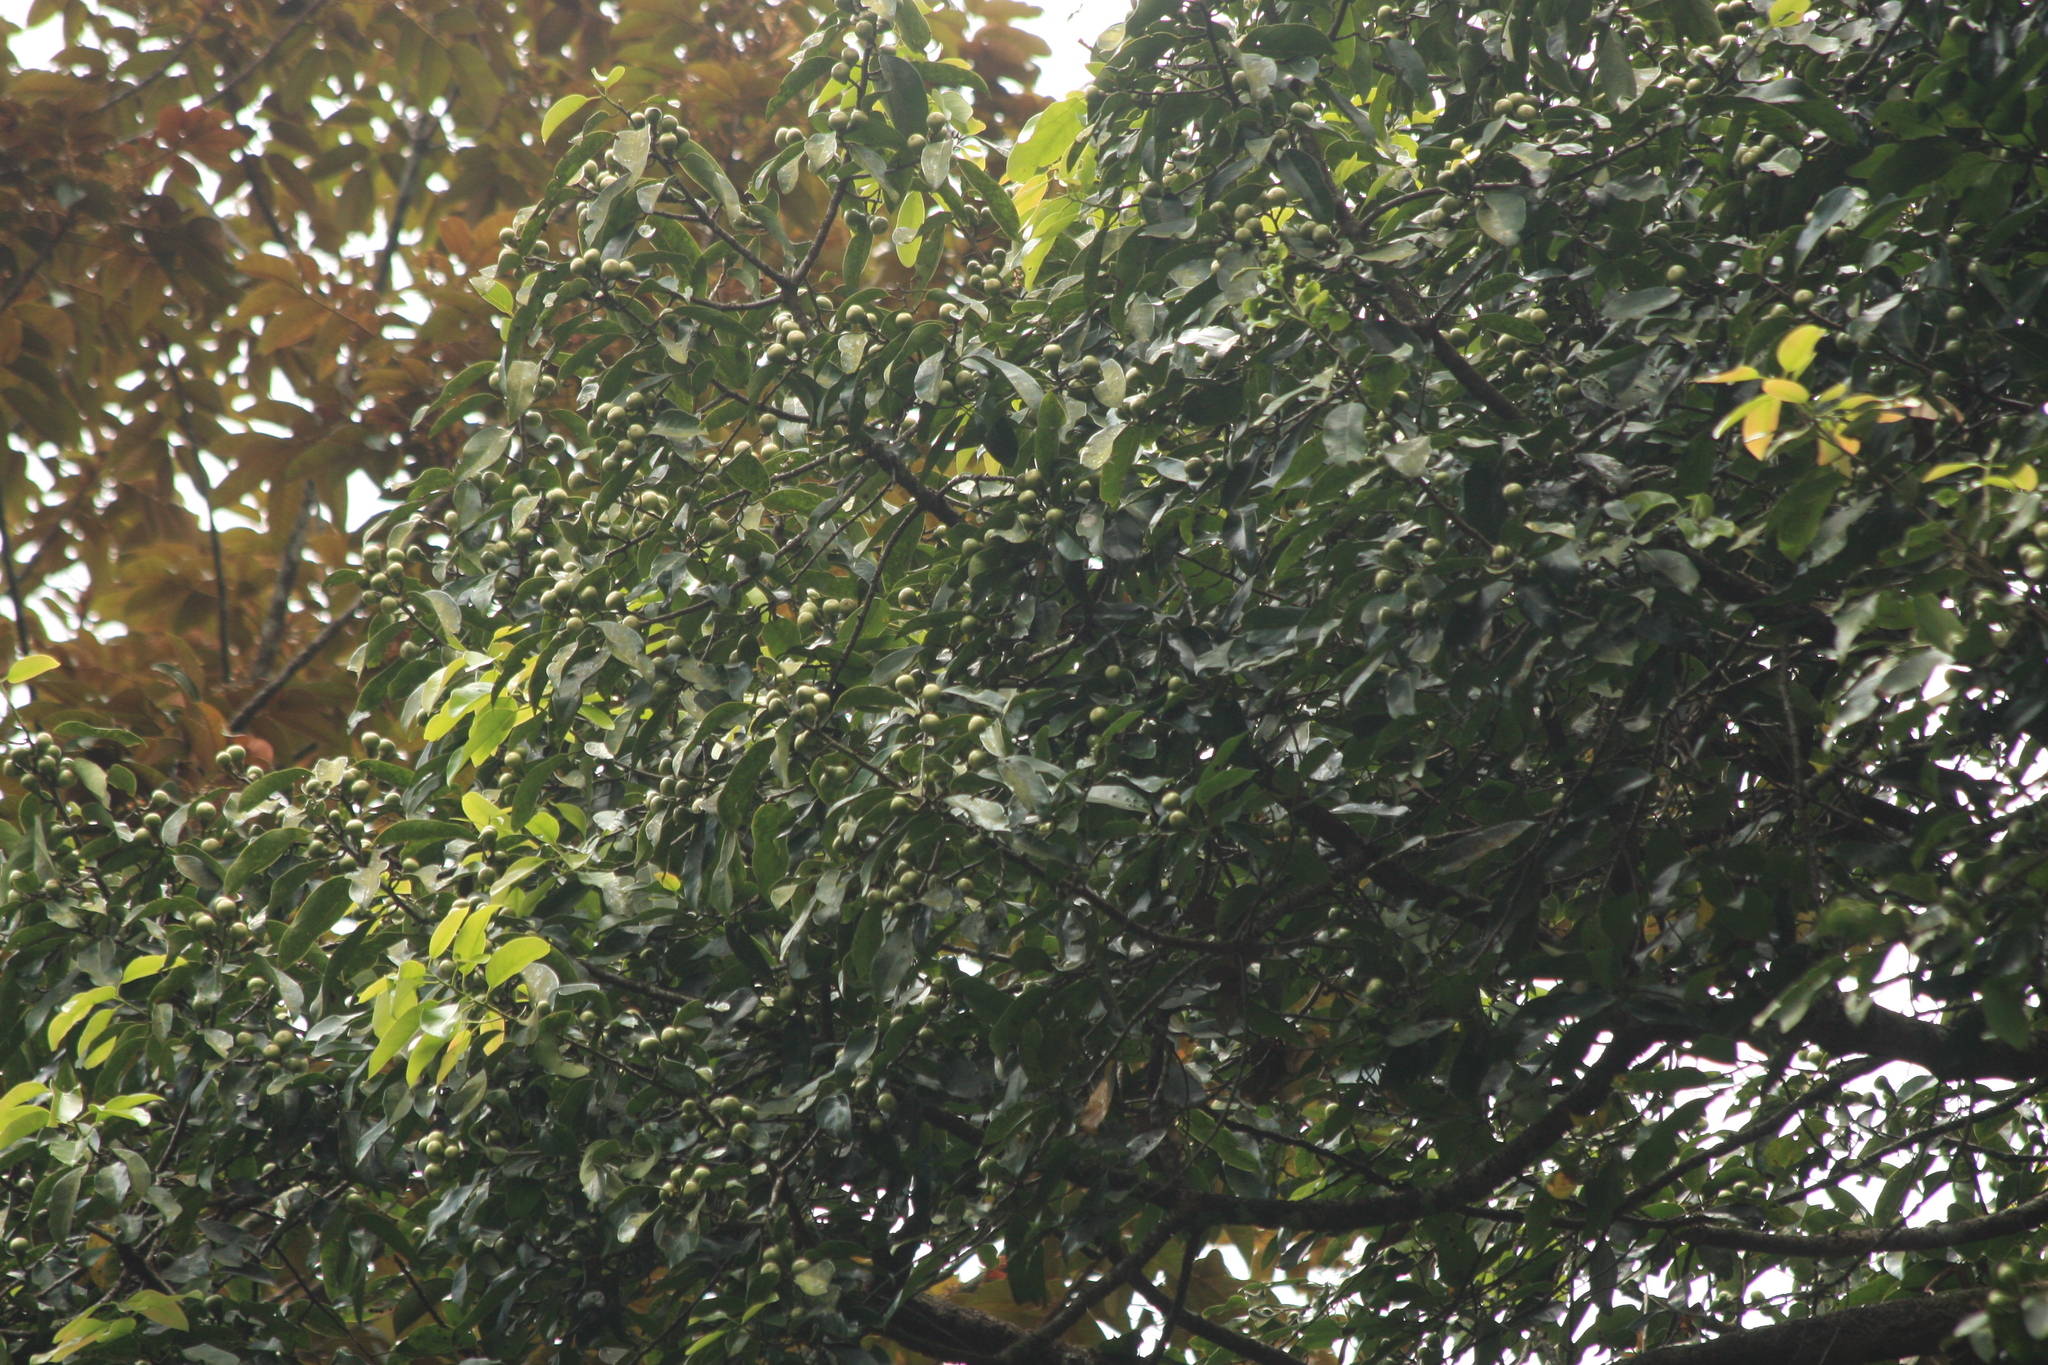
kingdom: Plantae
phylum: Tracheophyta
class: Magnoliopsida
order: Laurales
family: Lauraceae
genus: Litsea
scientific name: Litsea nigrescens
